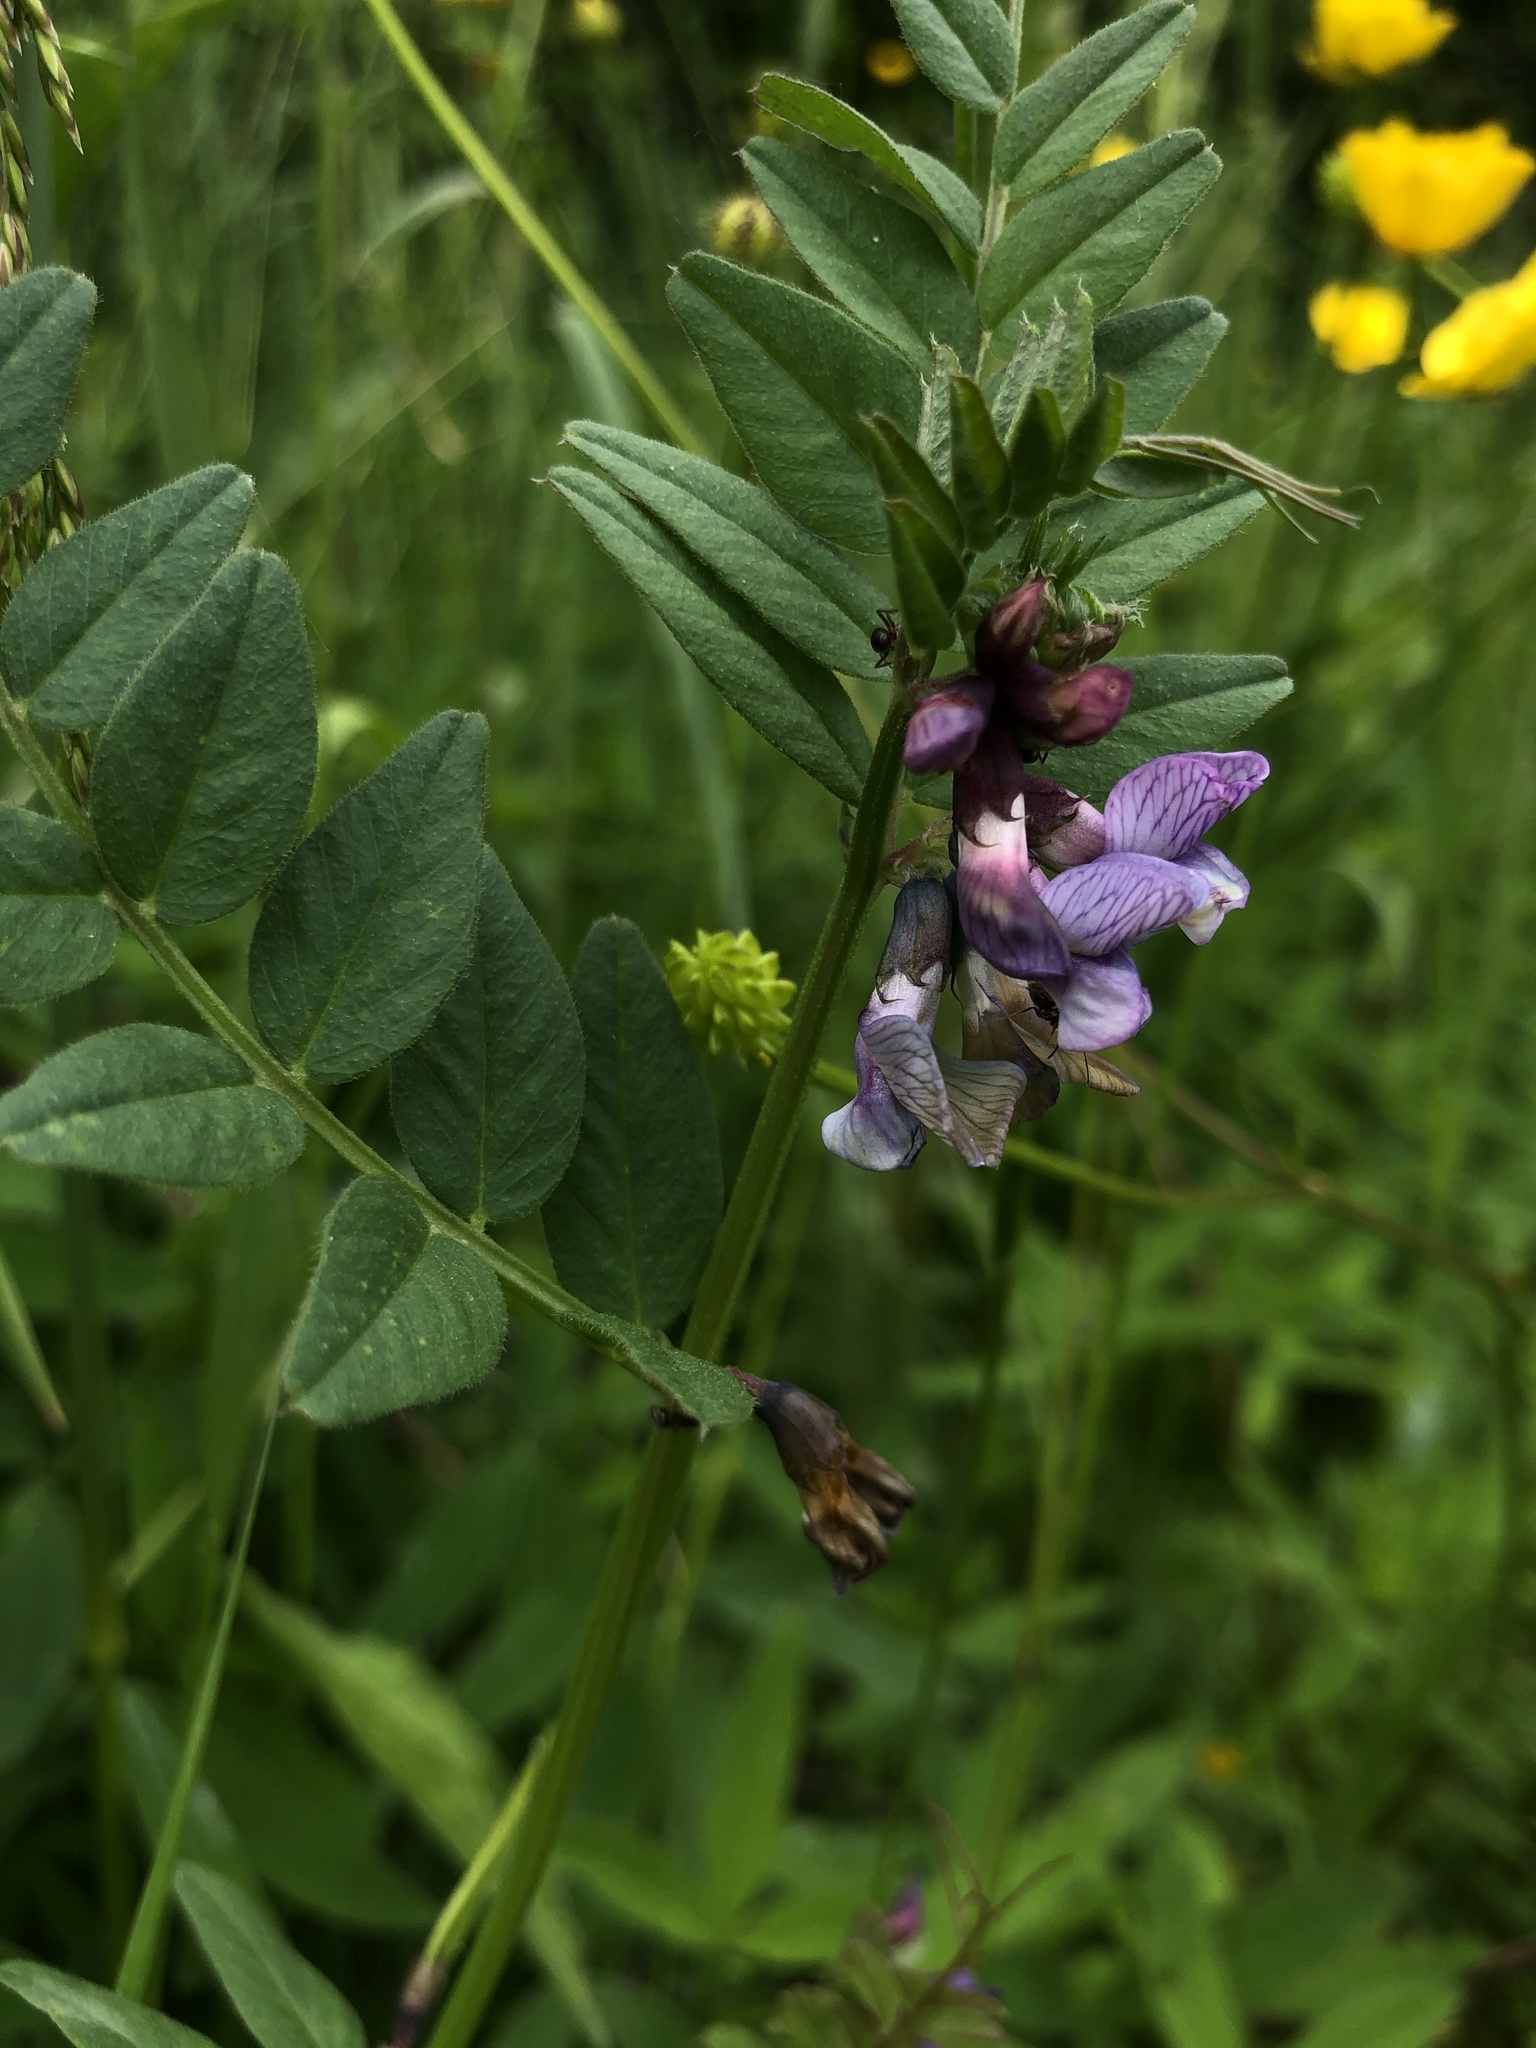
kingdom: Plantae
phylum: Tracheophyta
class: Magnoliopsida
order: Fabales
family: Fabaceae
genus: Vicia
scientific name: Vicia sepium
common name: Bush vetch
